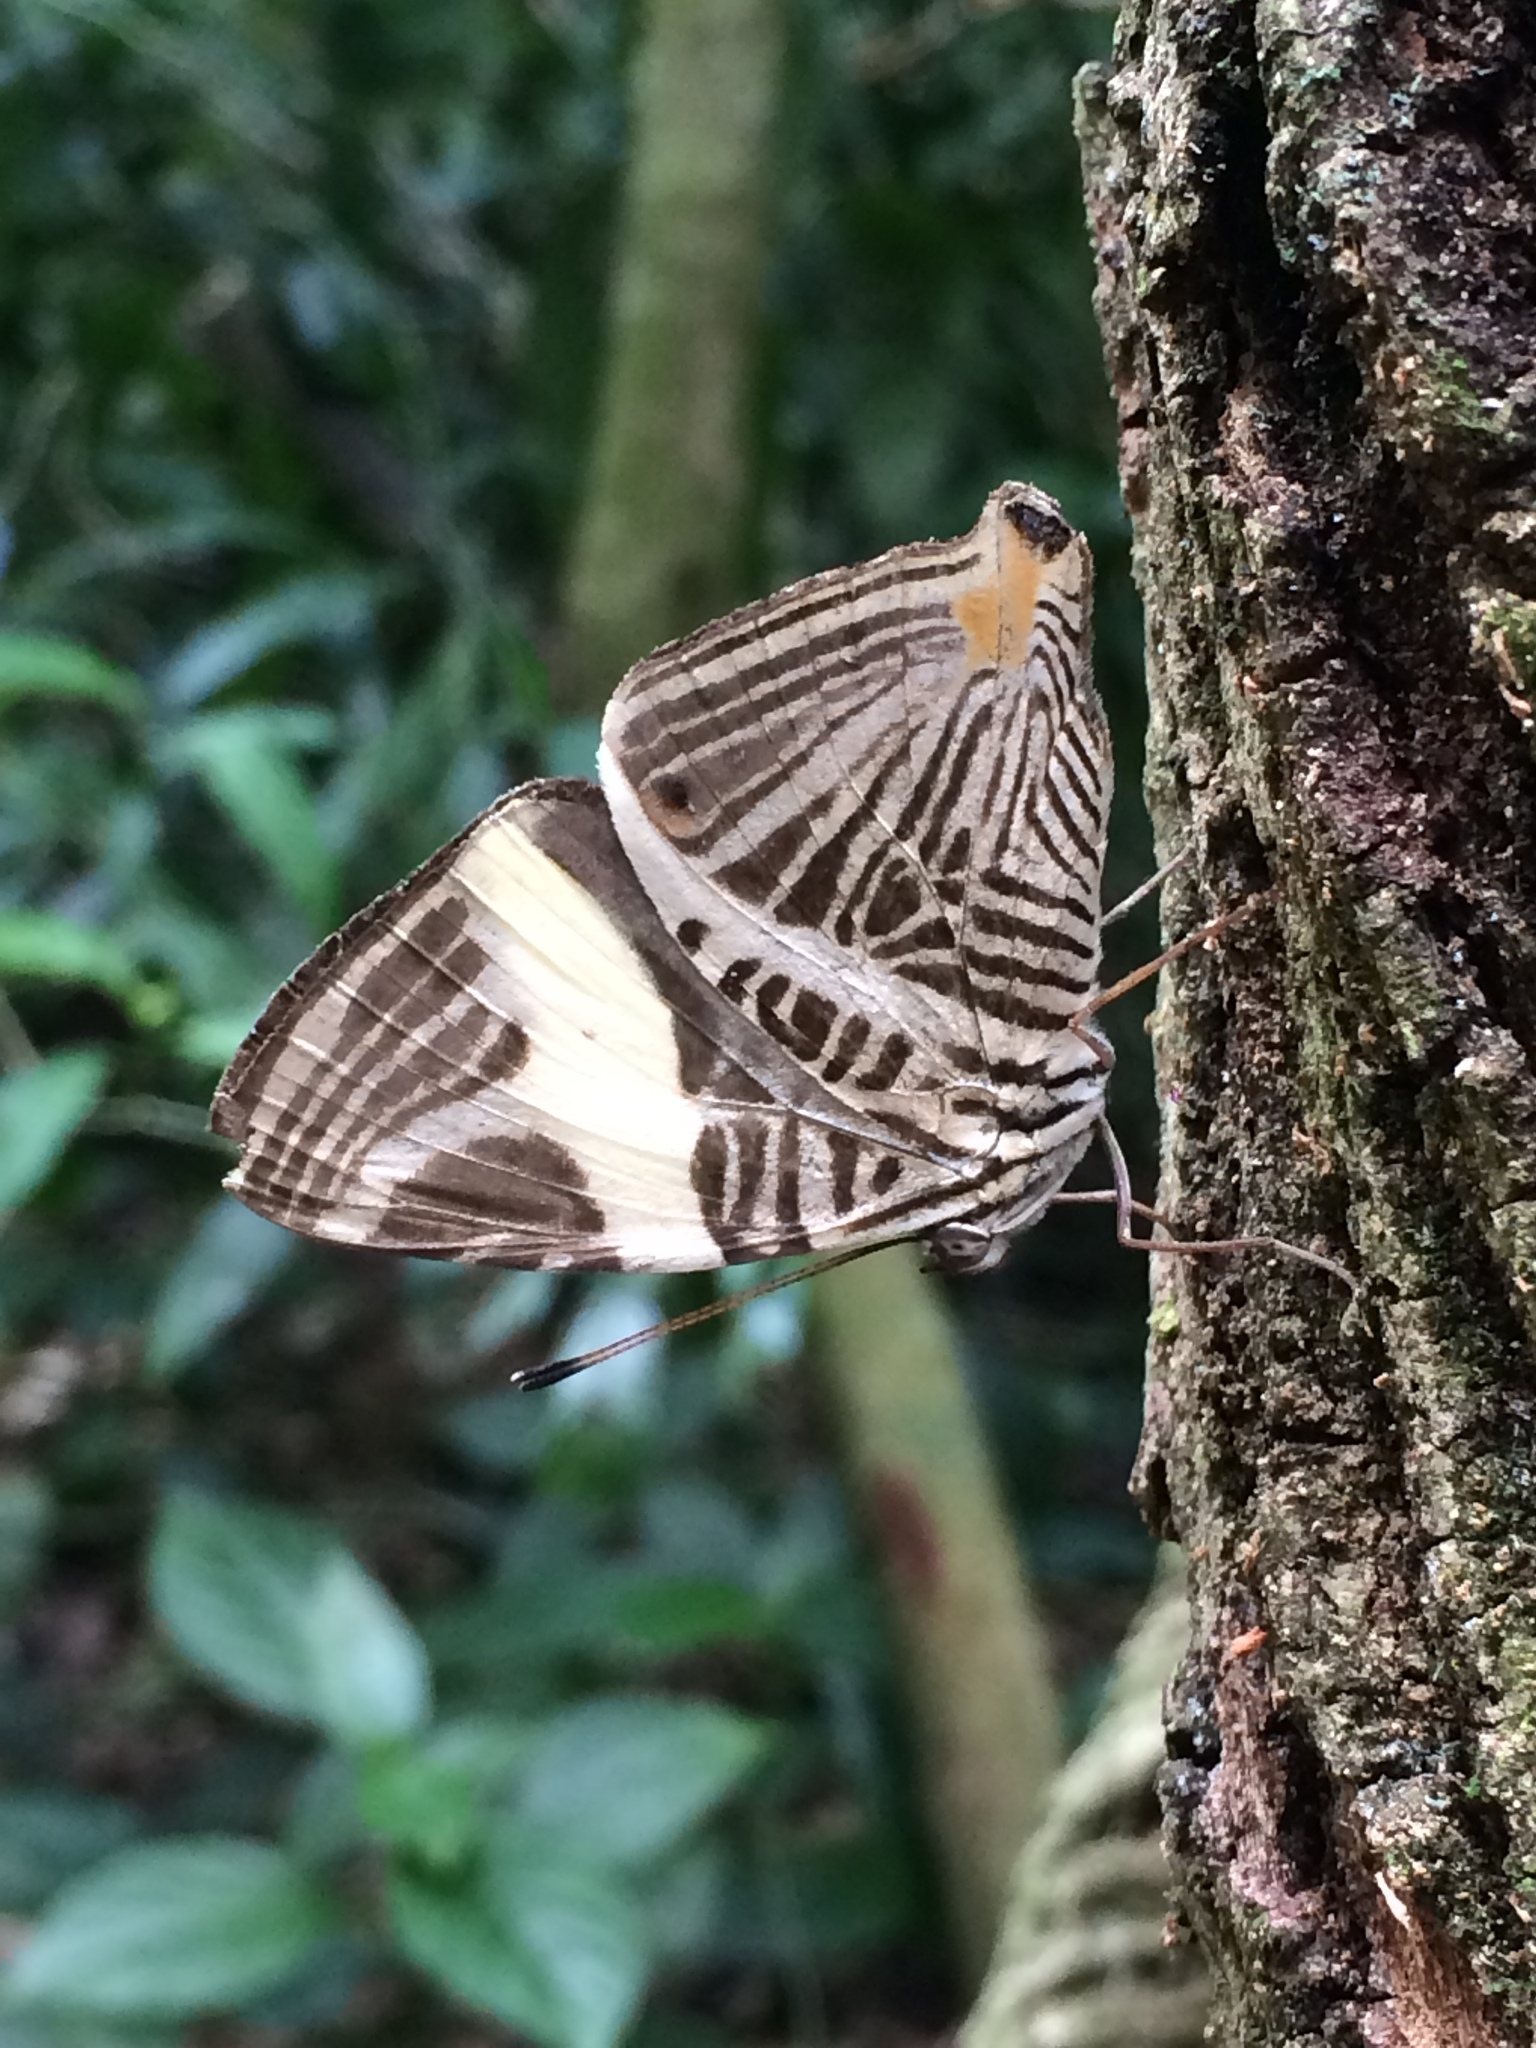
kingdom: Animalia
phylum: Arthropoda
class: Insecta
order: Lepidoptera
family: Nymphalidae
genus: Colobura
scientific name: Colobura dirce
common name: Dirce beauty
